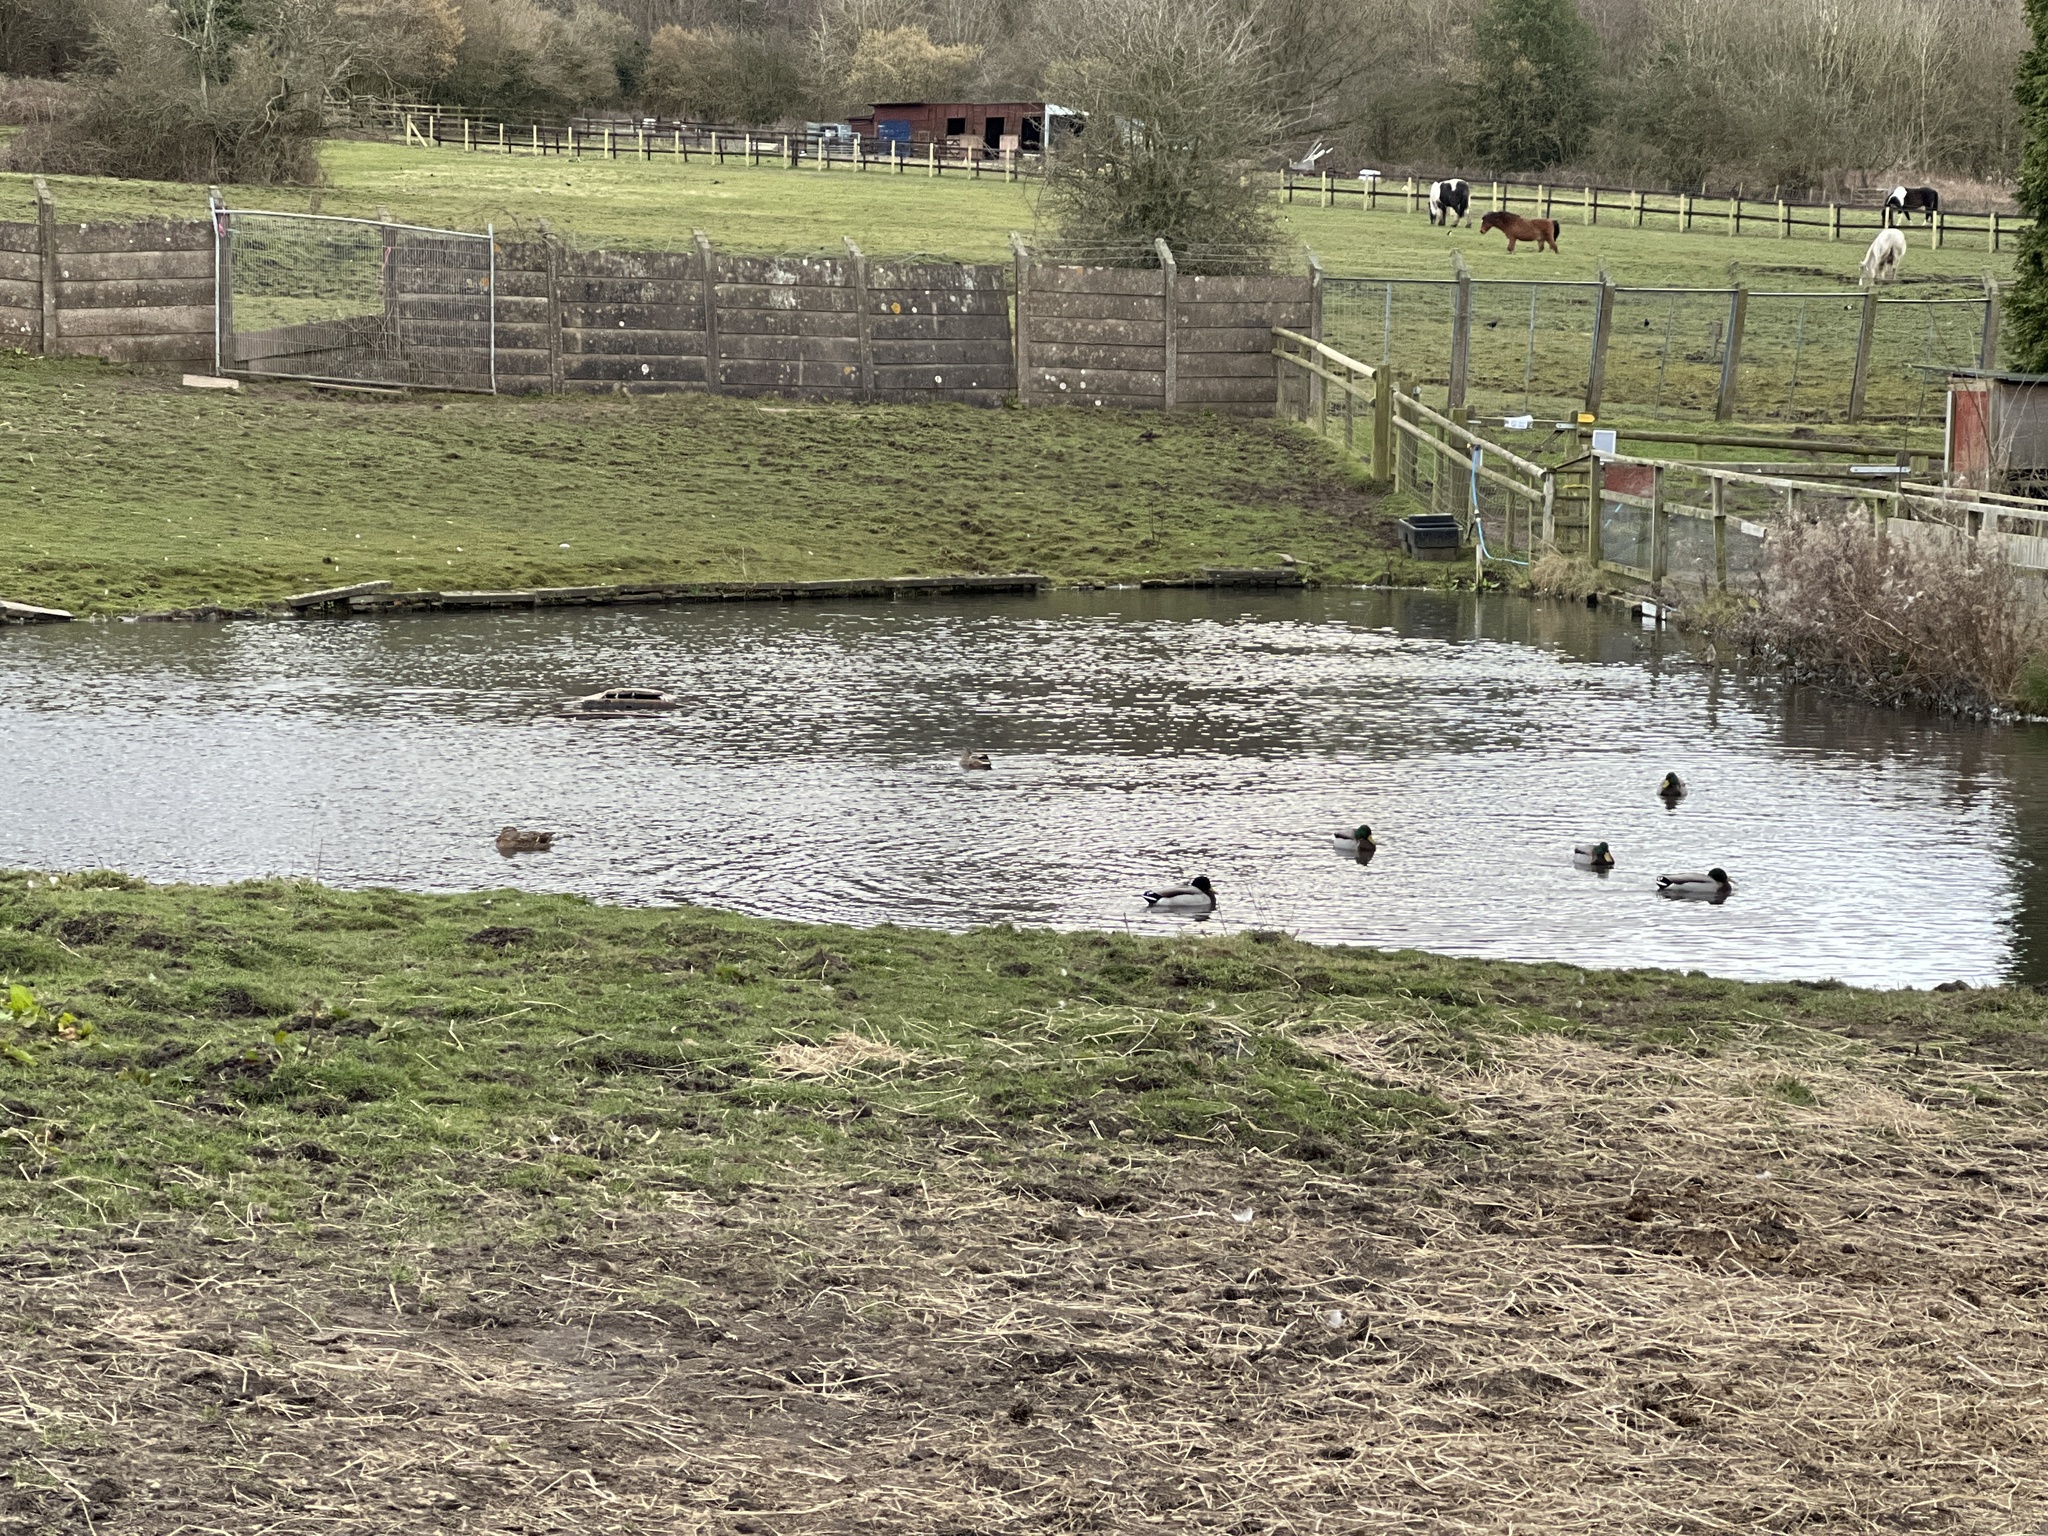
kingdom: Animalia
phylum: Chordata
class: Aves
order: Anseriformes
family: Anatidae
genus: Anas
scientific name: Anas platyrhynchos
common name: Mallard
